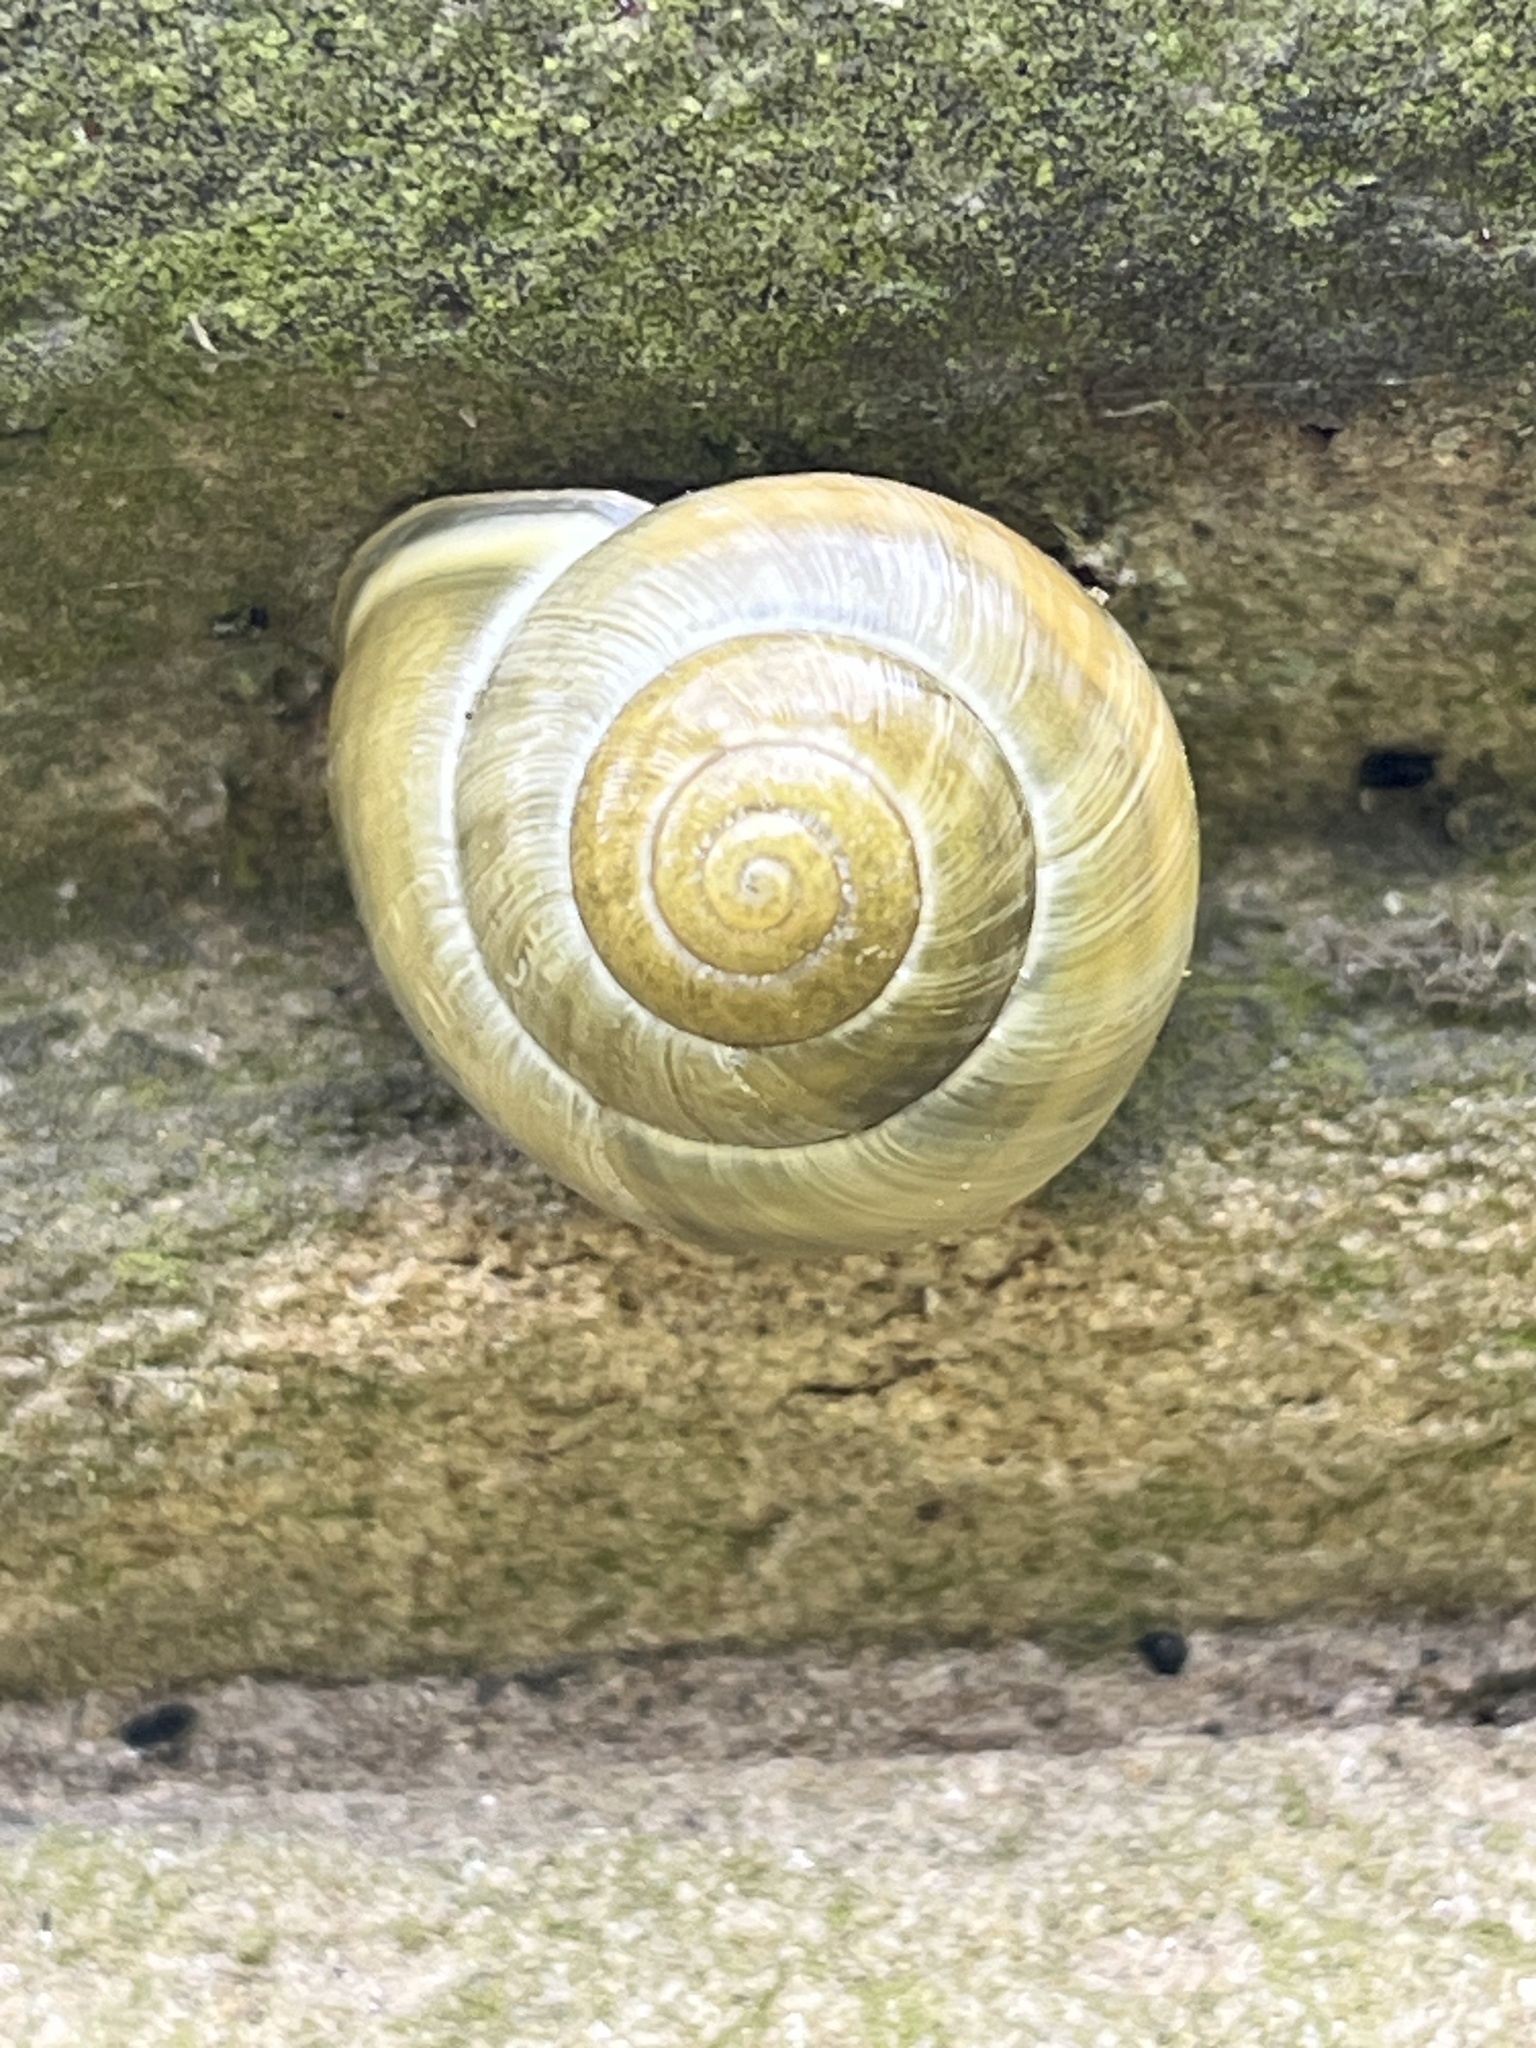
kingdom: Animalia
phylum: Mollusca
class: Gastropoda
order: Stylommatophora
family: Helicidae
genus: Cepaea
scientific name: Cepaea hortensis
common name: White-lip gardensnail
